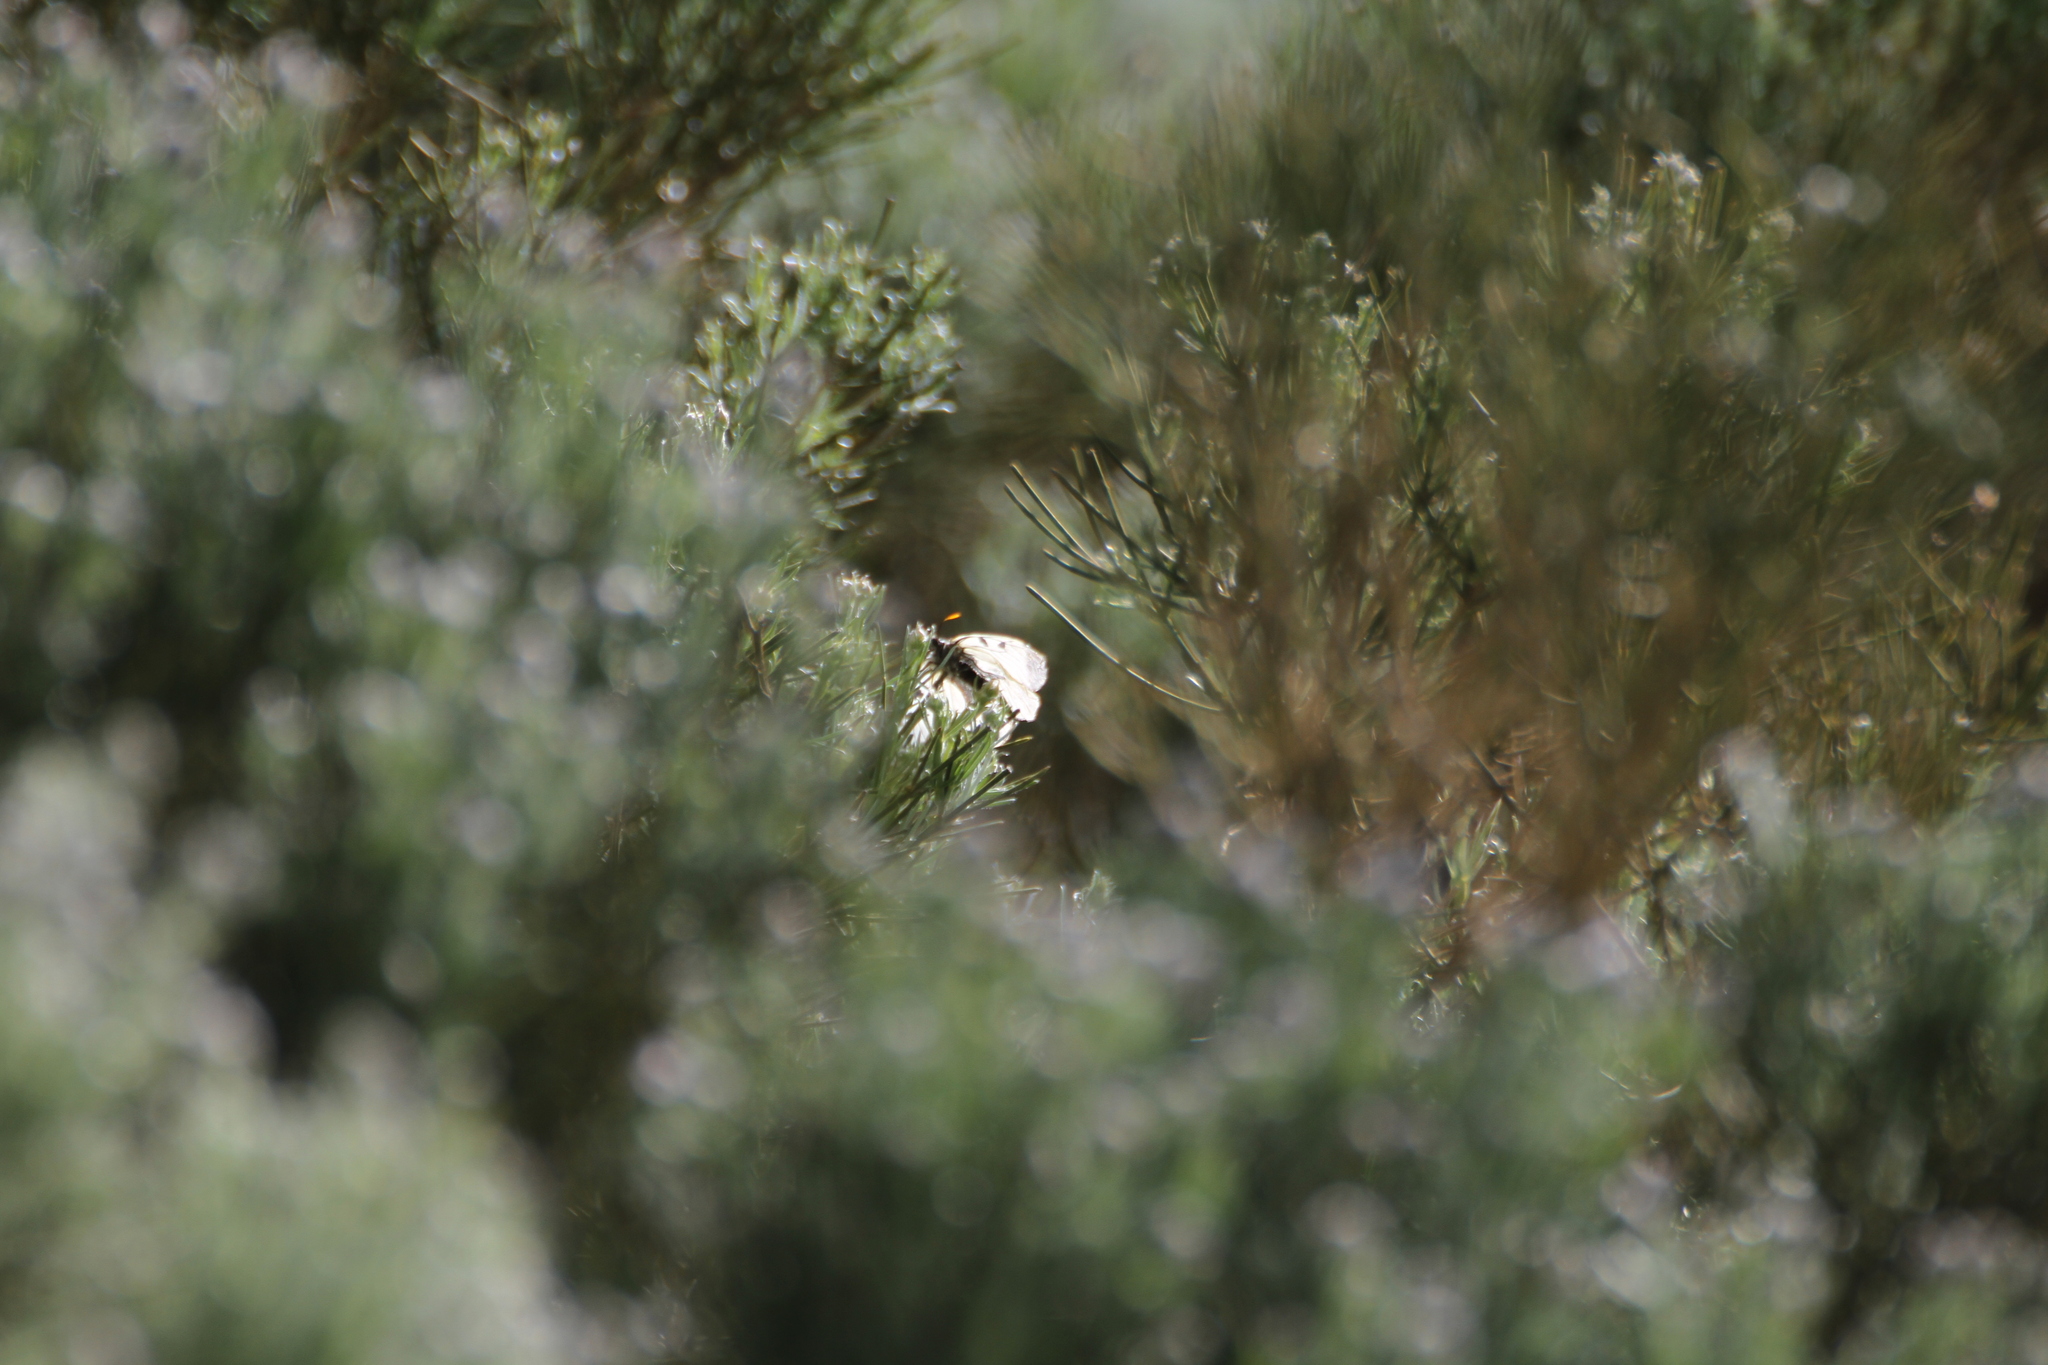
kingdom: Animalia
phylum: Arthropoda
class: Insecta
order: Lepidoptera
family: Papilionidae
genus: Parnassius
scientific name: Parnassius mnemosyne
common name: Clouded apollo
